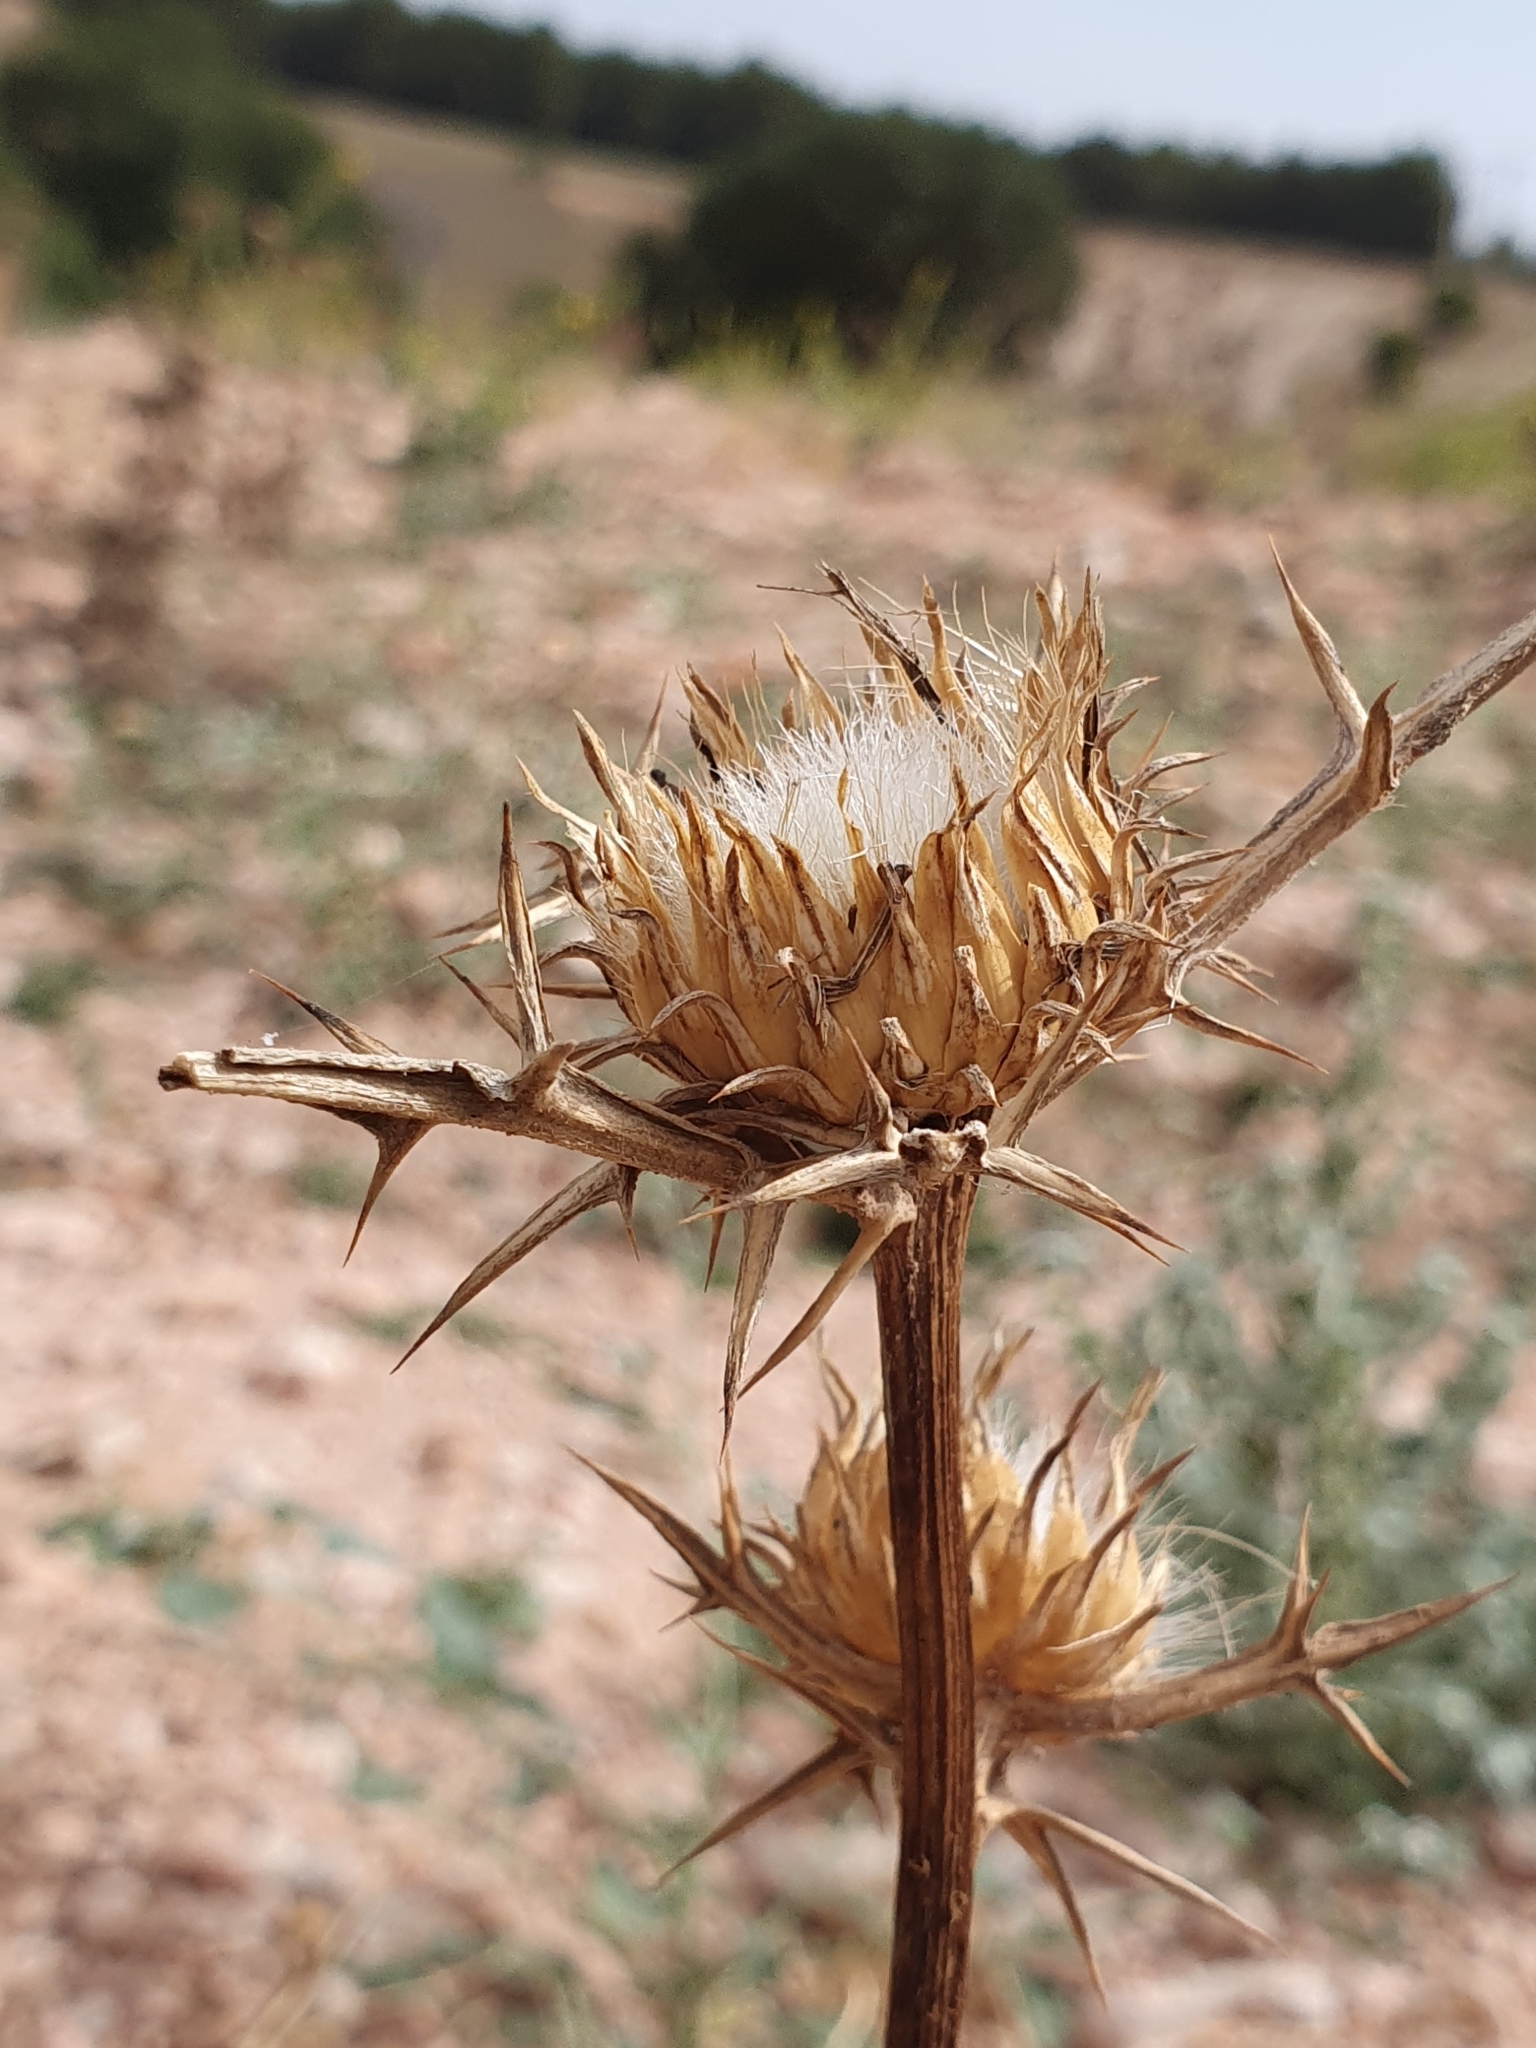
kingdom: Plantae
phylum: Tracheophyta
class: Magnoliopsida
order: Asterales
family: Asteraceae
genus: Notobasis
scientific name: Notobasis syriaca
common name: Syrian thistle
